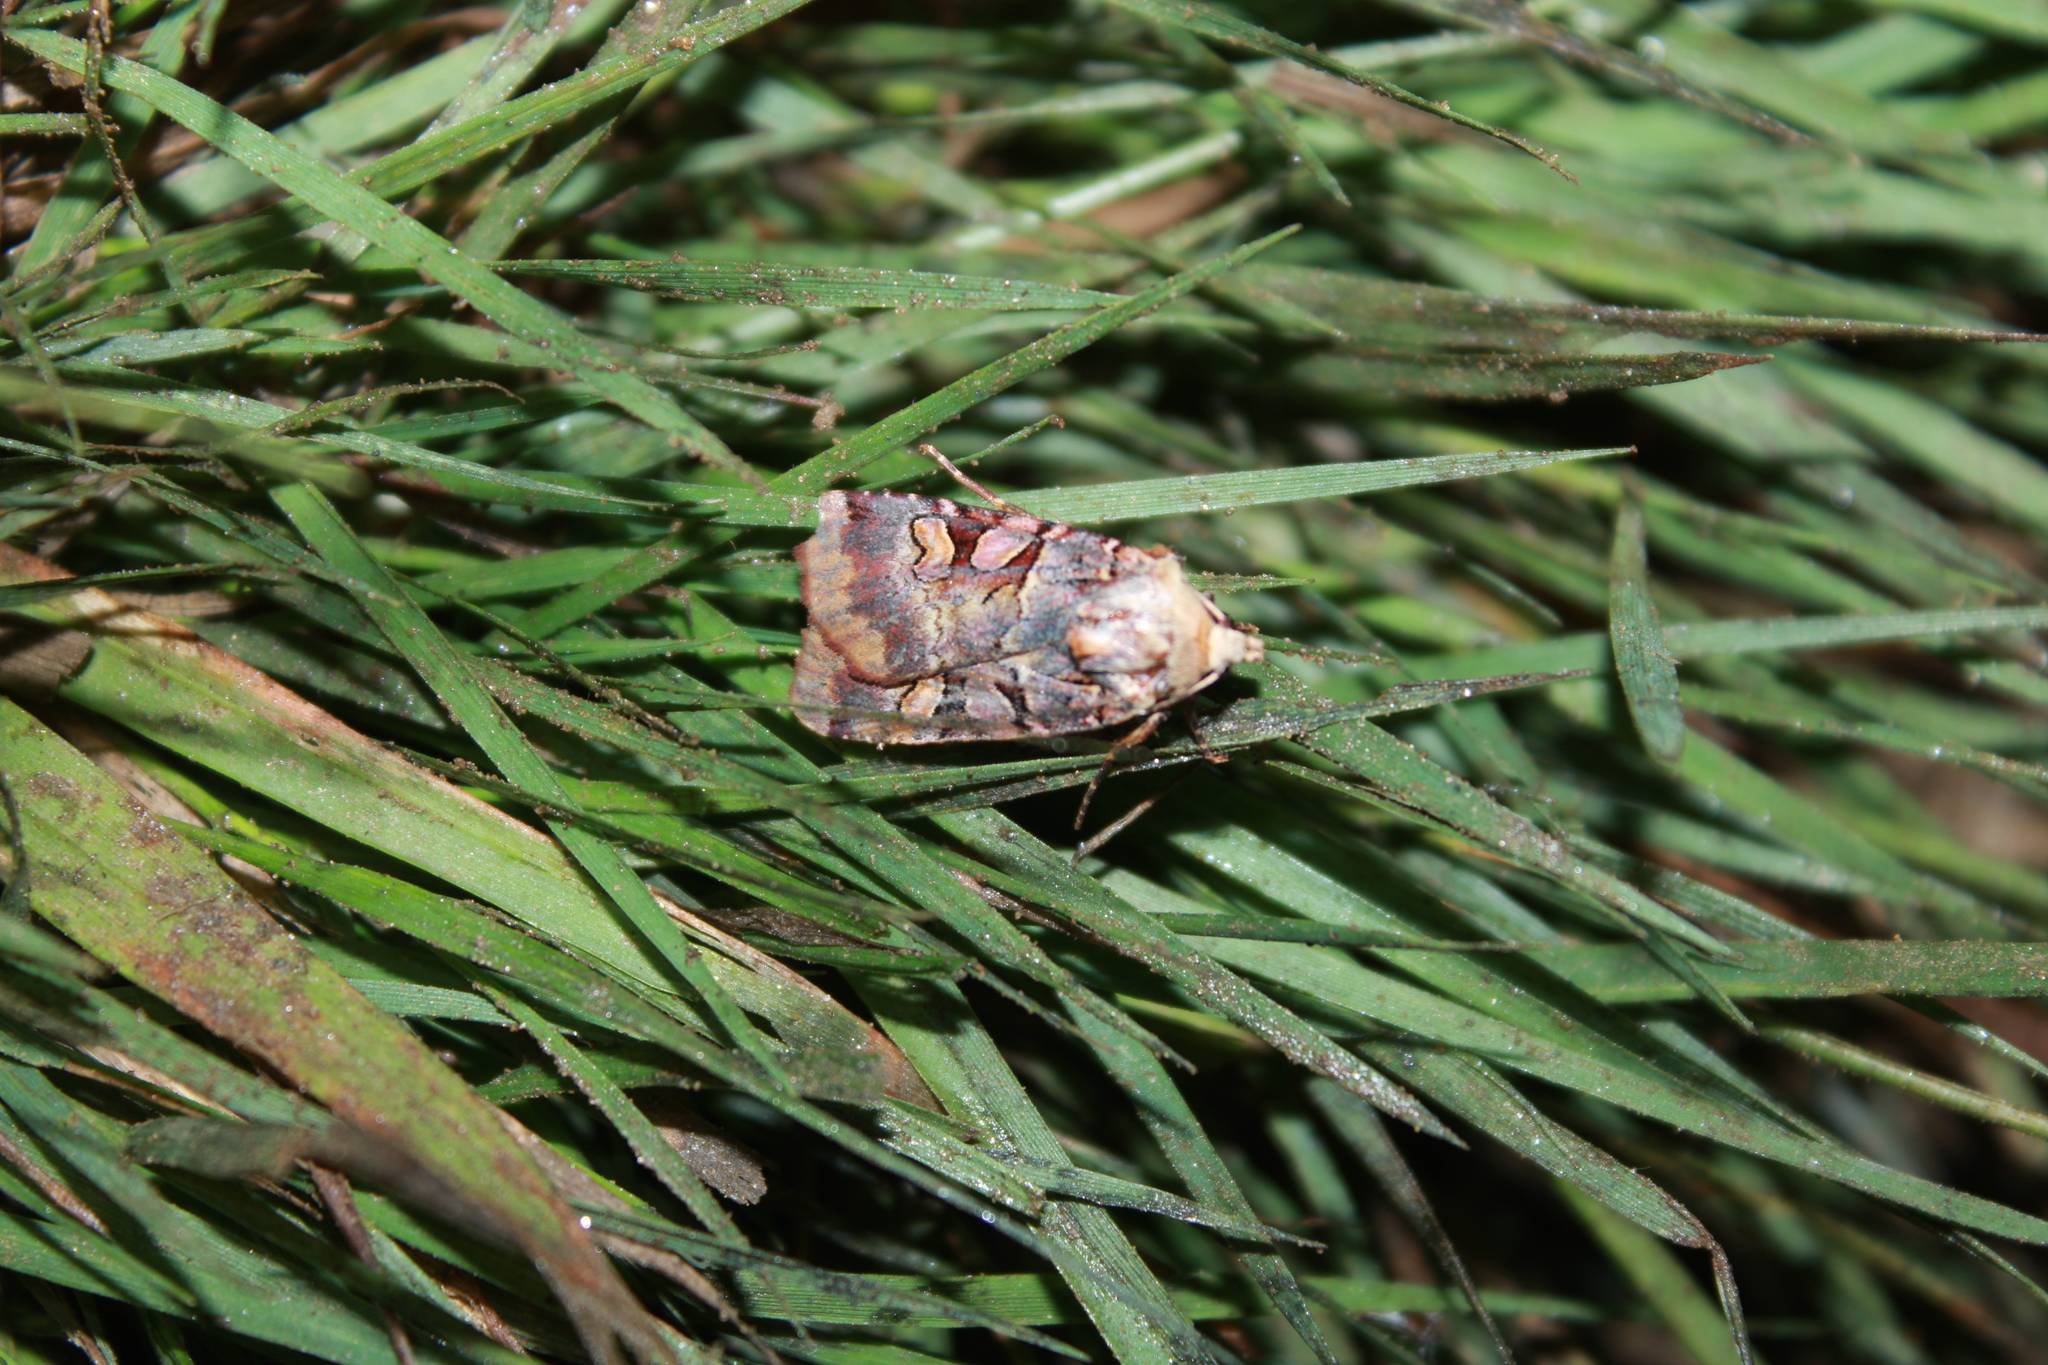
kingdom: Animalia
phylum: Arthropoda
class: Insecta
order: Lepidoptera
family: Noctuidae
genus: Xestia
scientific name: Xestia oblata
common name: Rosy dart
